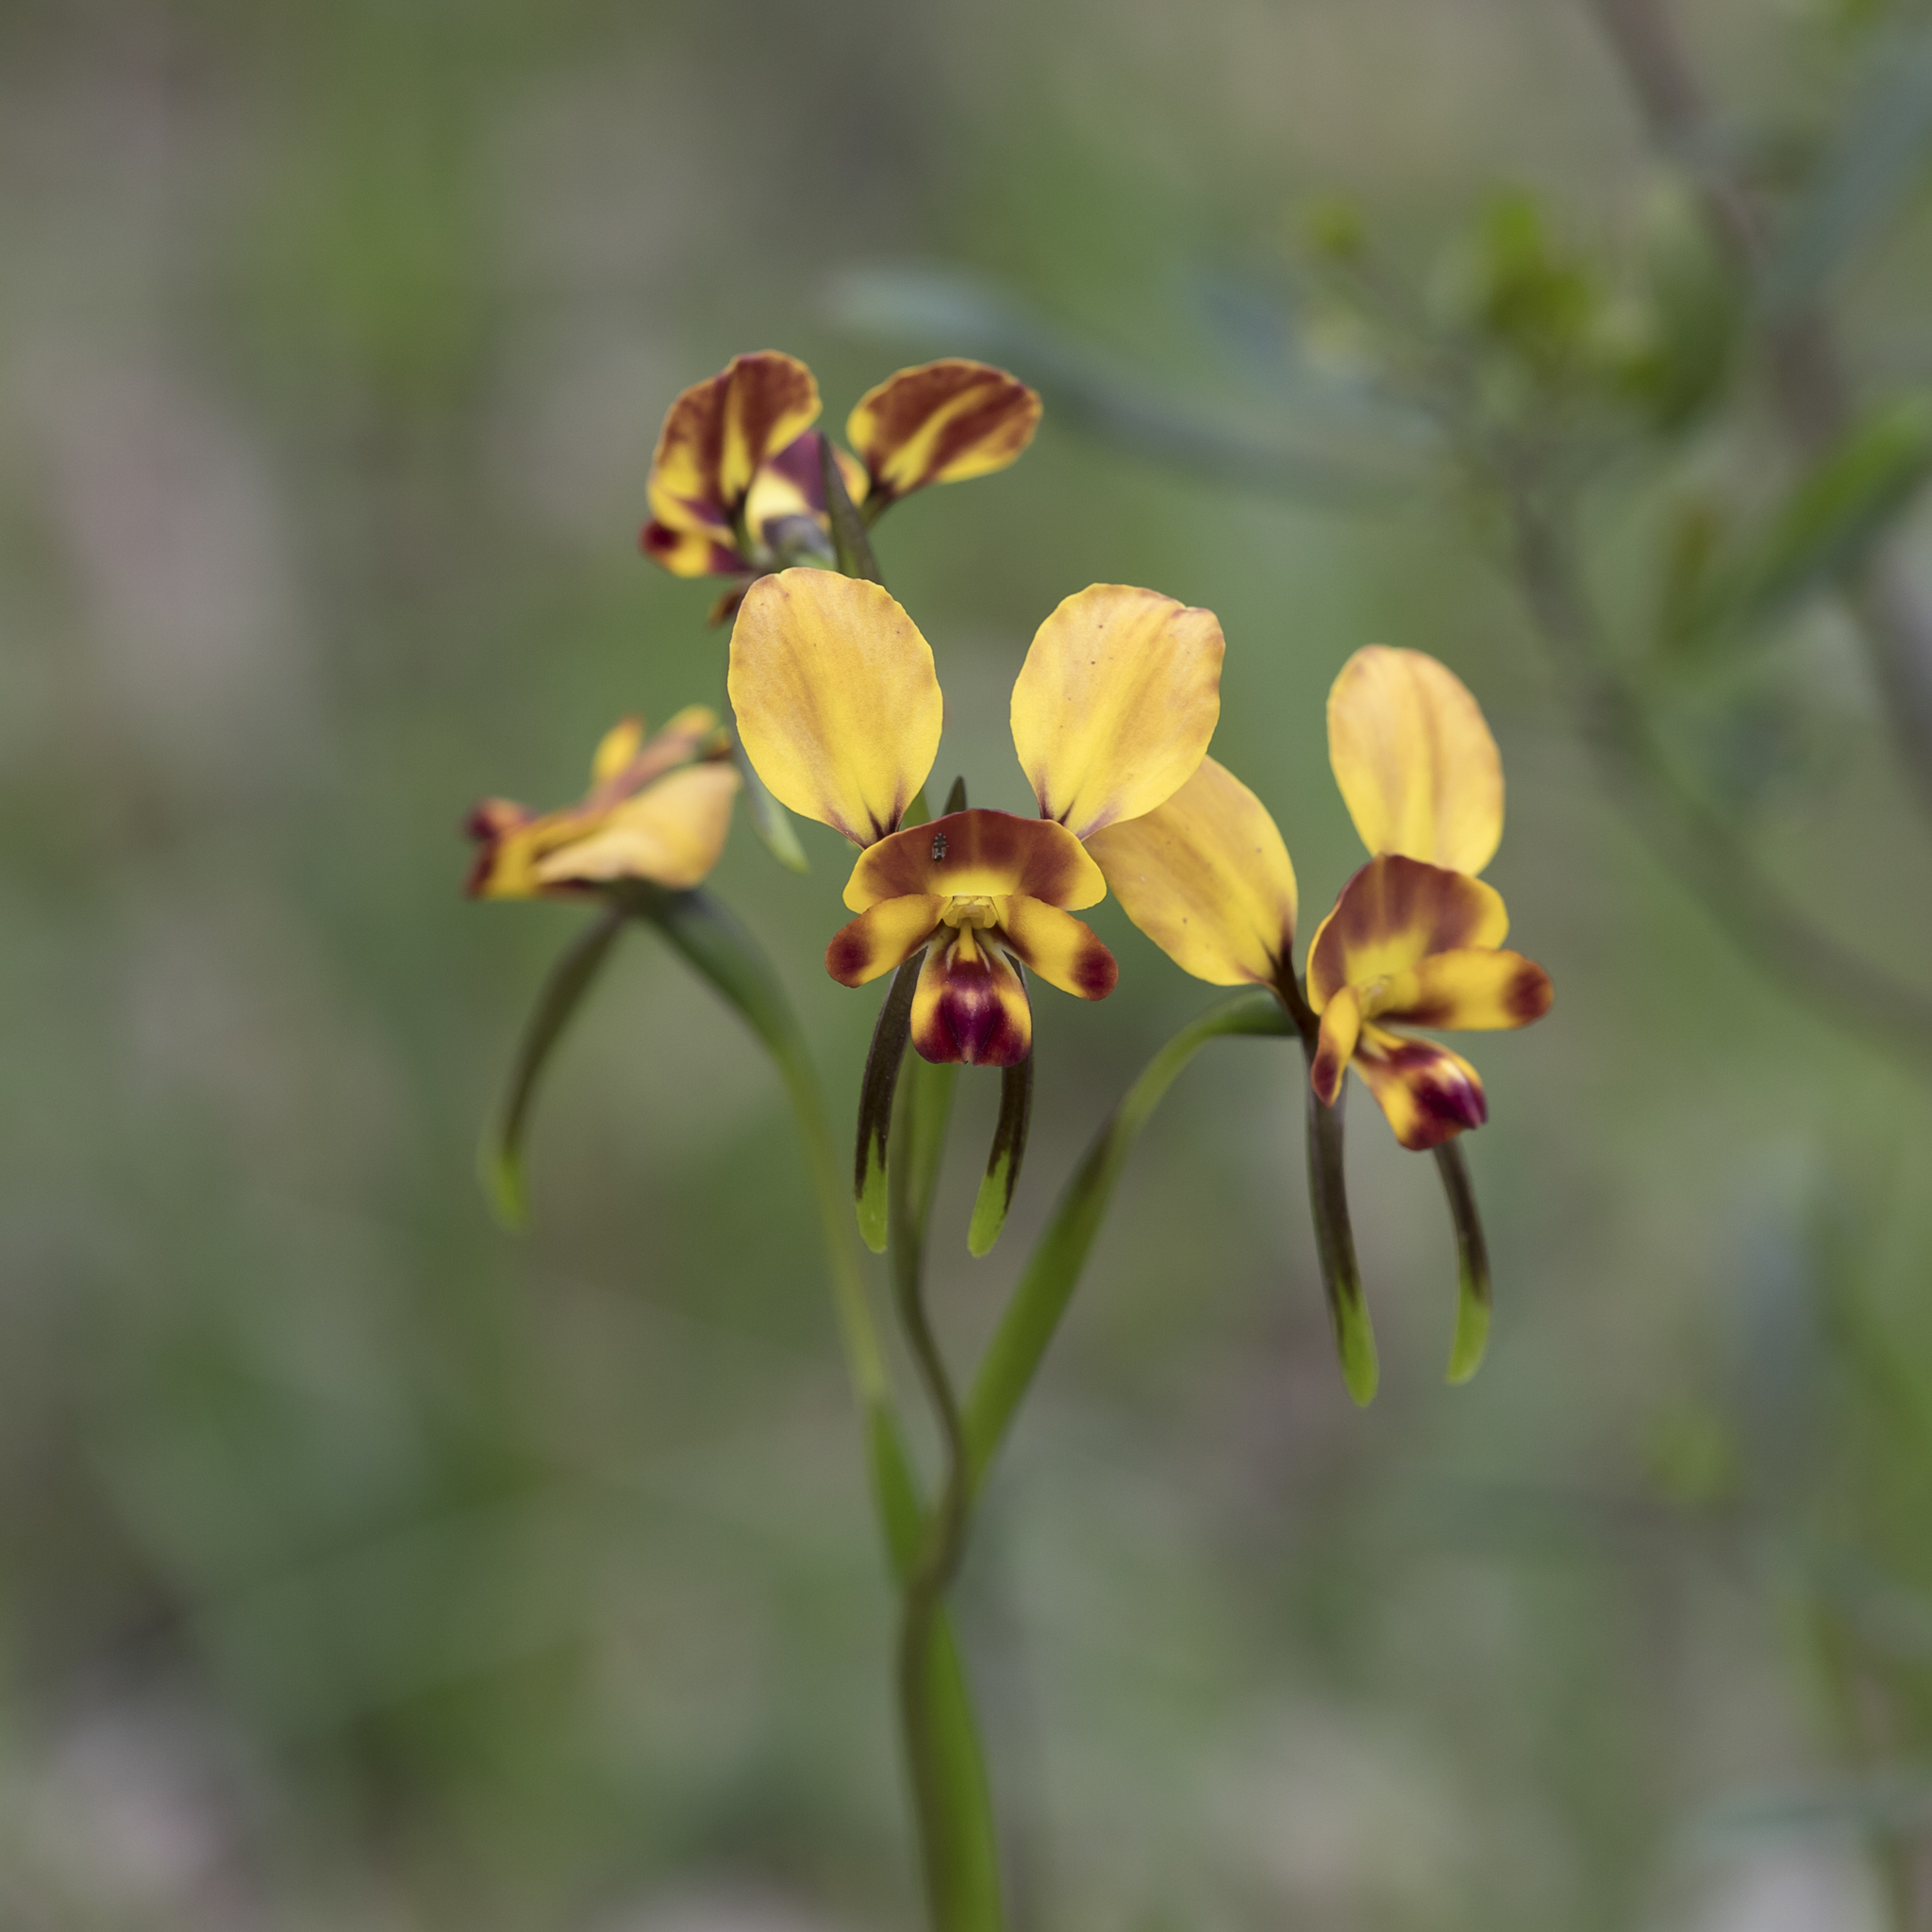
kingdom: Plantae
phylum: Tracheophyta
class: Liliopsida
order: Asparagales
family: Orchidaceae
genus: Diuris
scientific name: Diuris orientis
